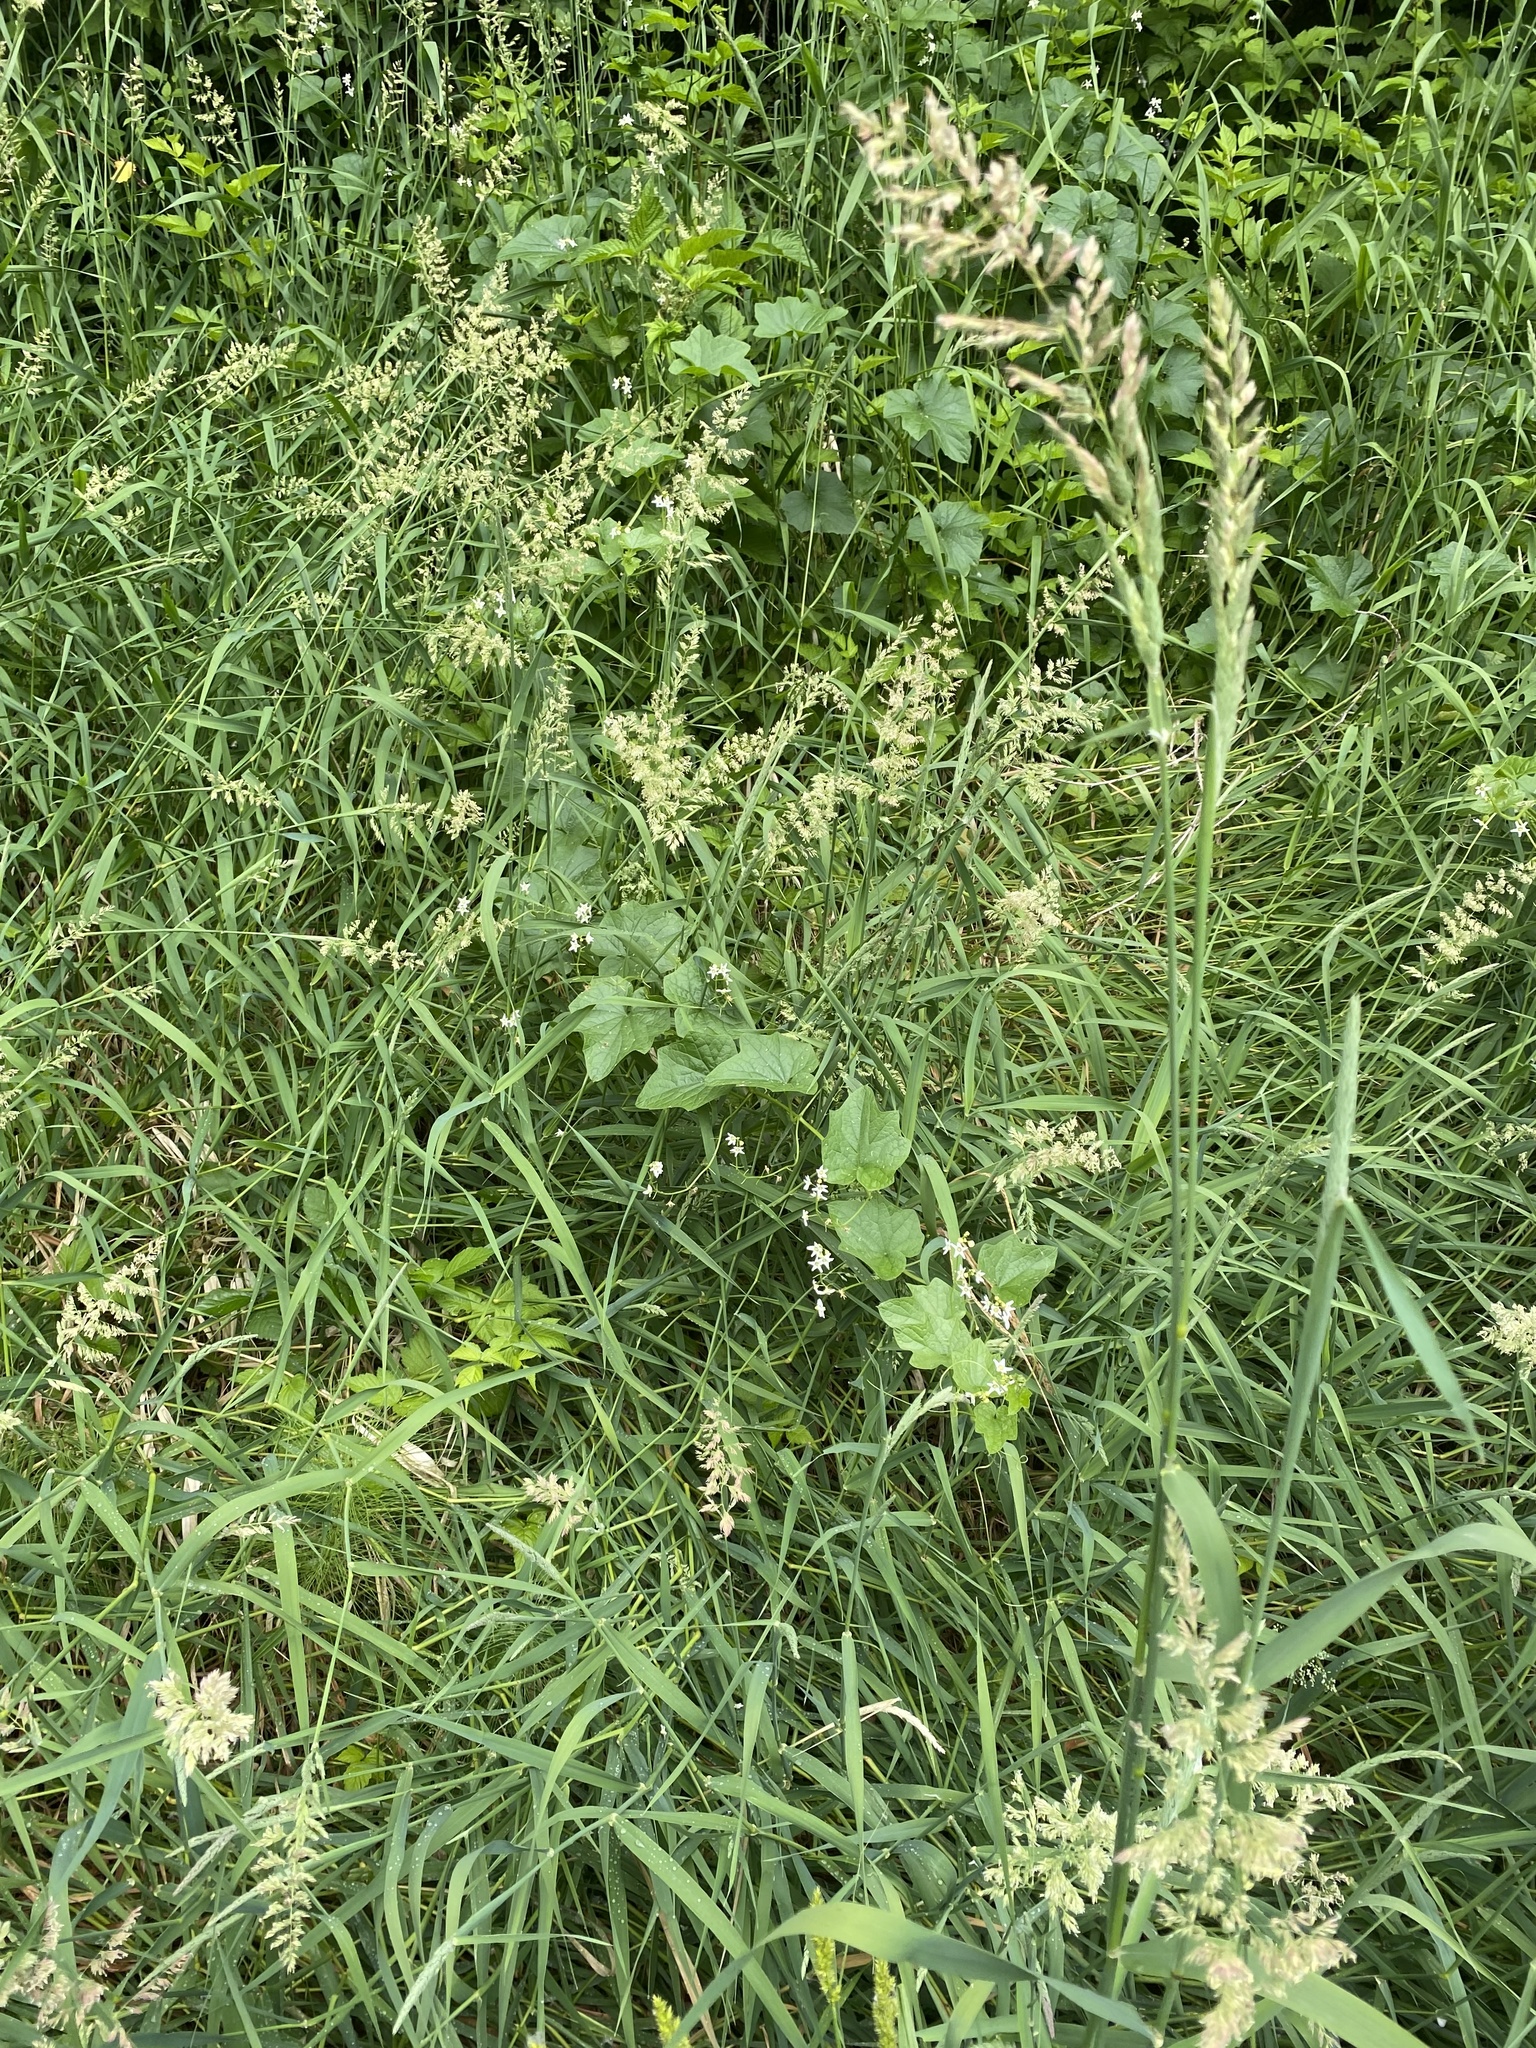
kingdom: Plantae
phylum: Tracheophyta
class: Magnoliopsida
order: Cucurbitales
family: Cucurbitaceae
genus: Marah
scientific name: Marah oregana
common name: Coastal manroot
